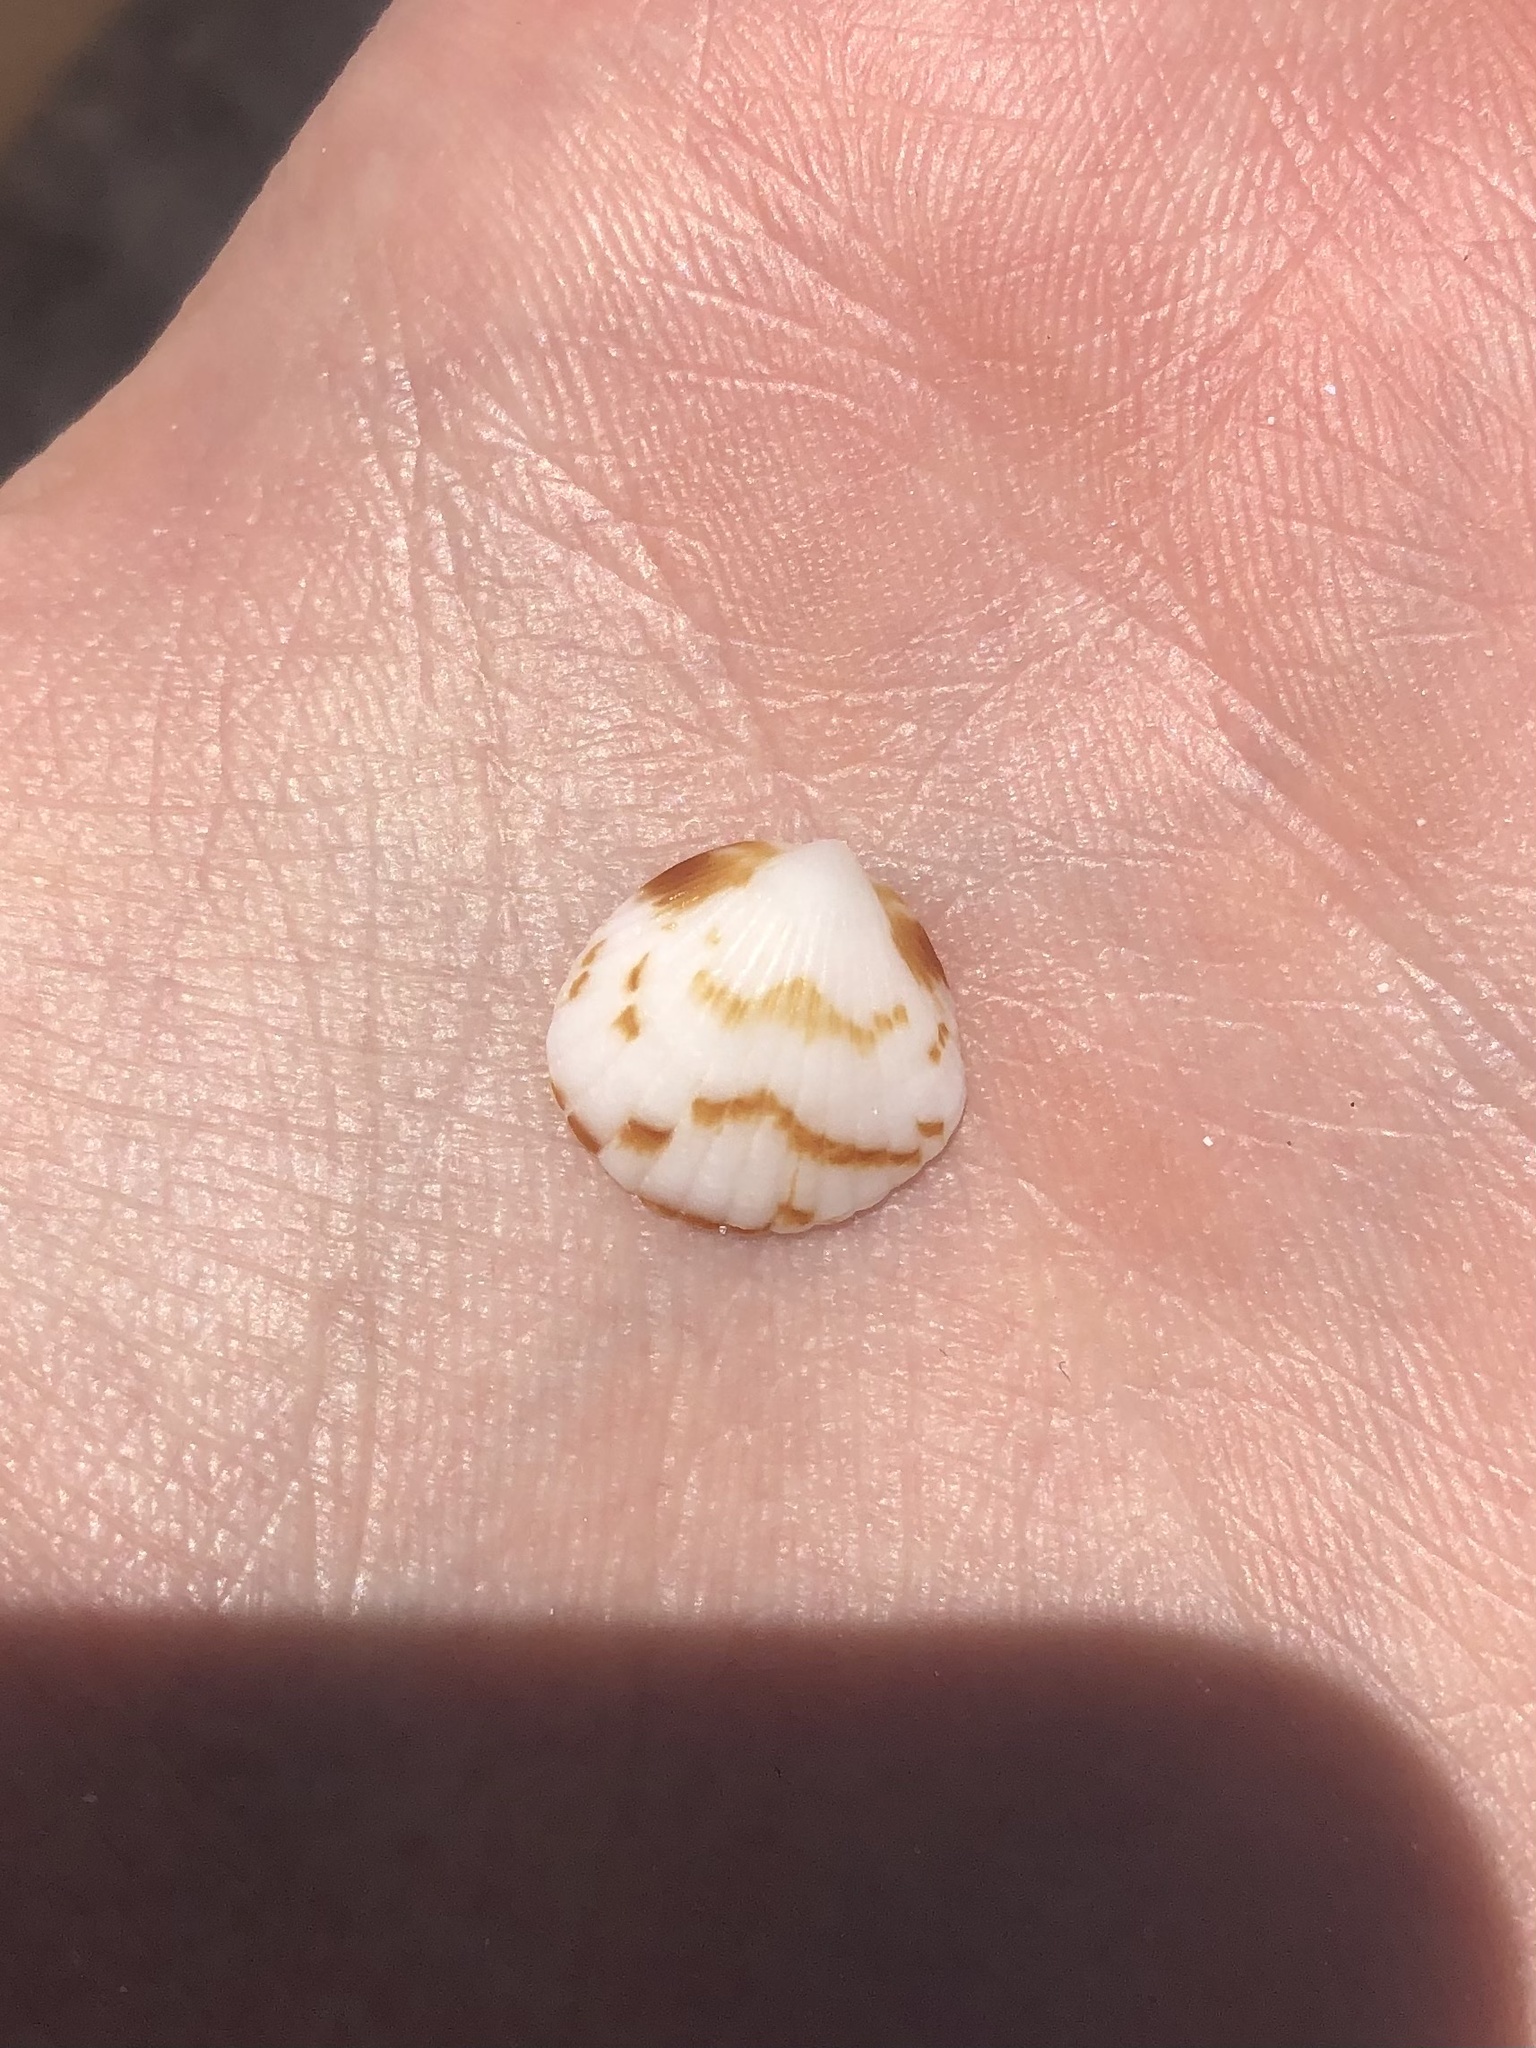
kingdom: Animalia
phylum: Mollusca
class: Bivalvia
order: Arcida
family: Glycymerididae
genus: Tucetona
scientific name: Tucetona pectinata
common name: Comb bittersweet
